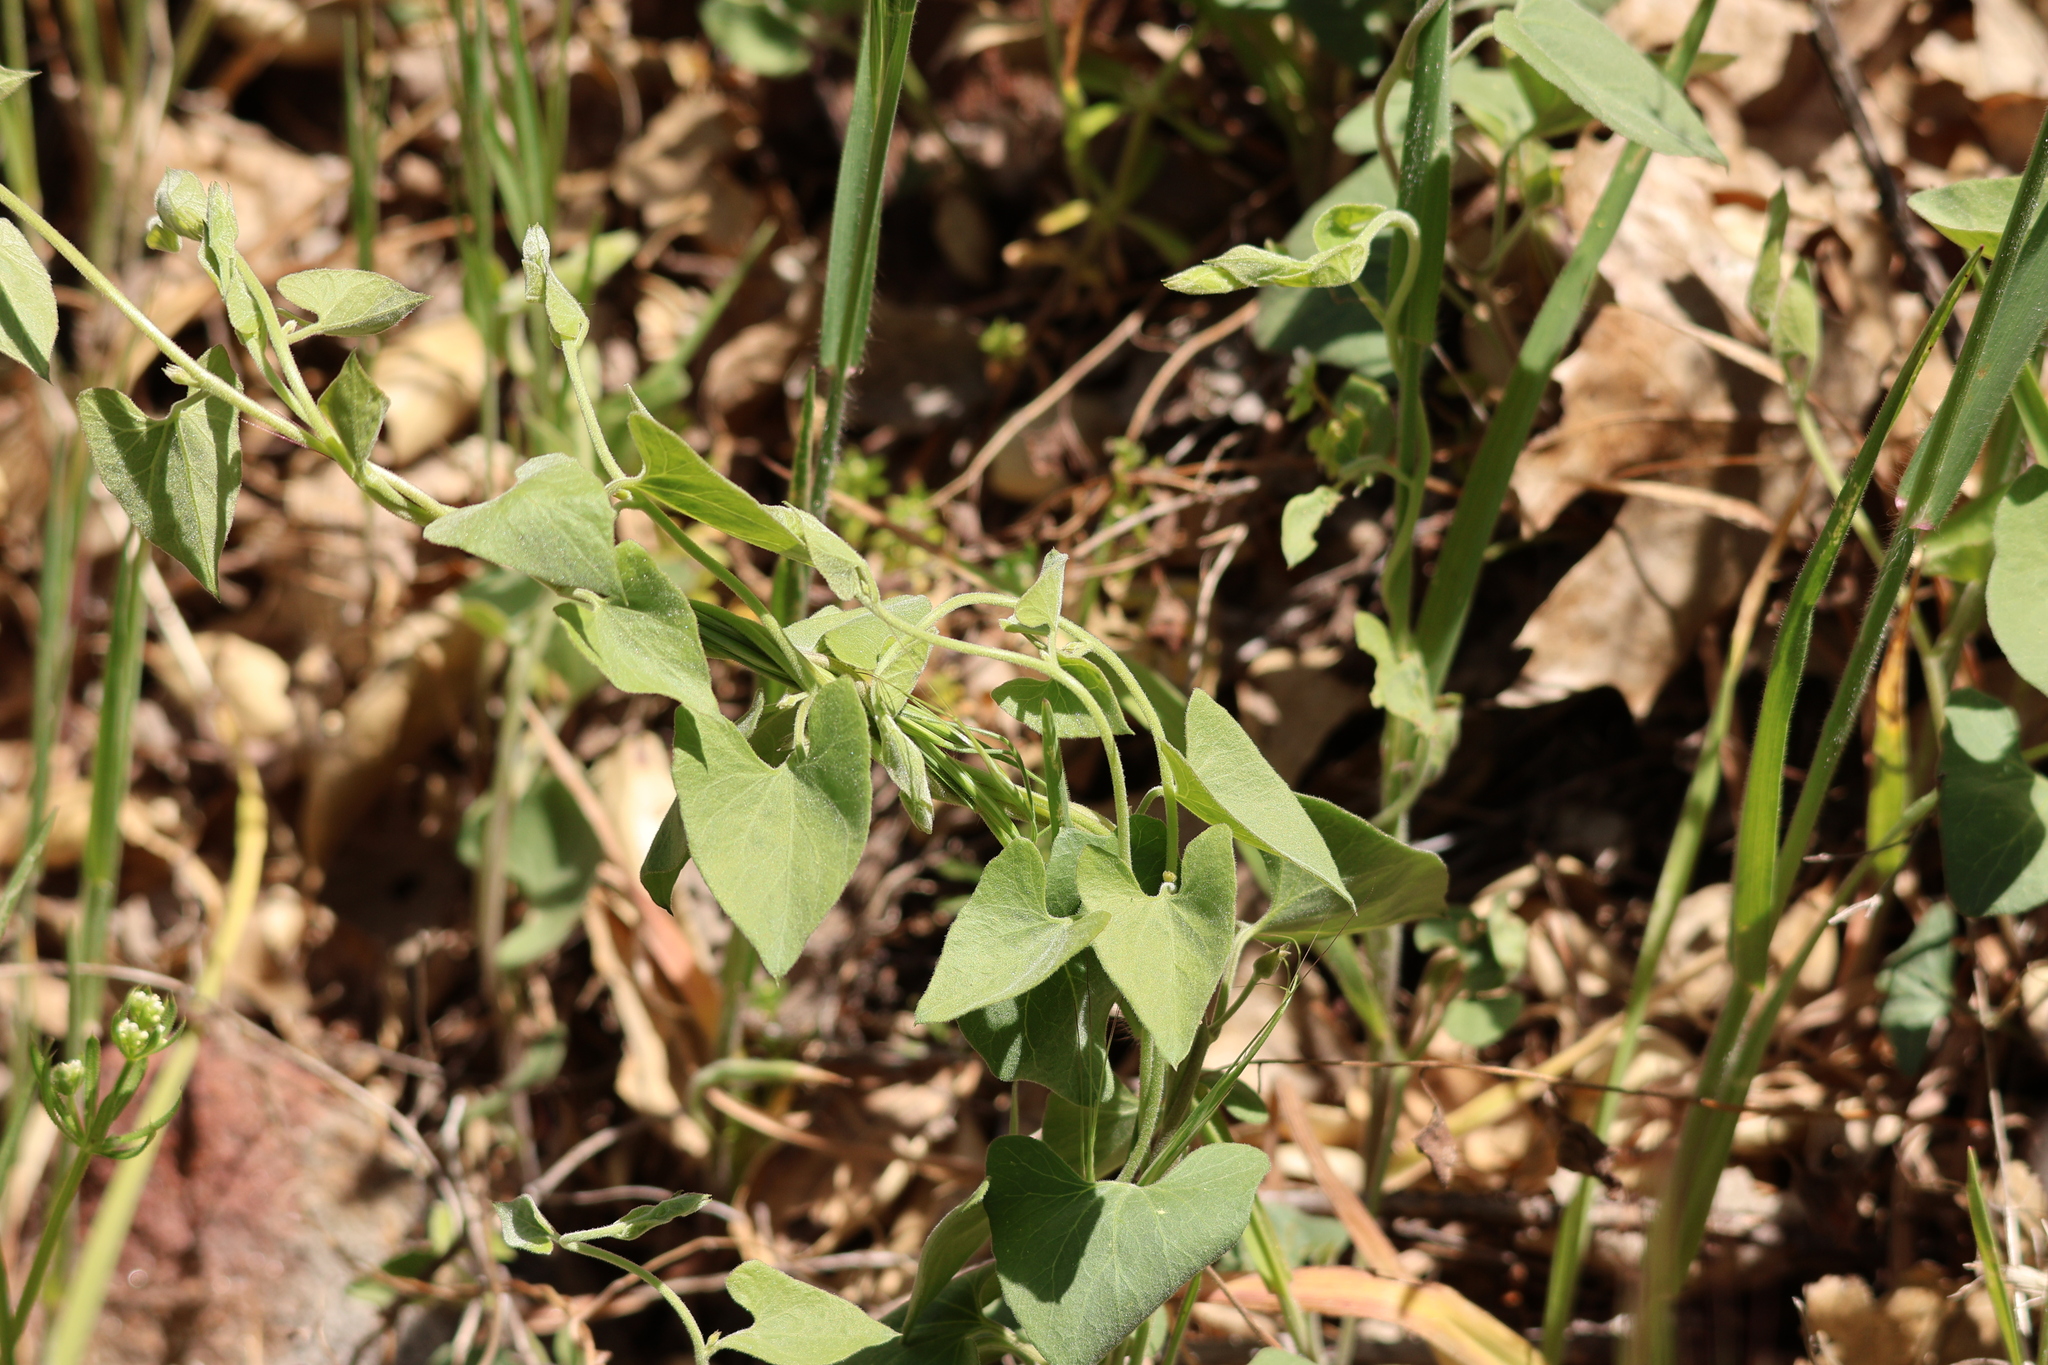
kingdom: Plantae
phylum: Tracheophyta
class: Magnoliopsida
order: Solanales
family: Convolvulaceae
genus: Calystegia
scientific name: Calystegia occidentalis
